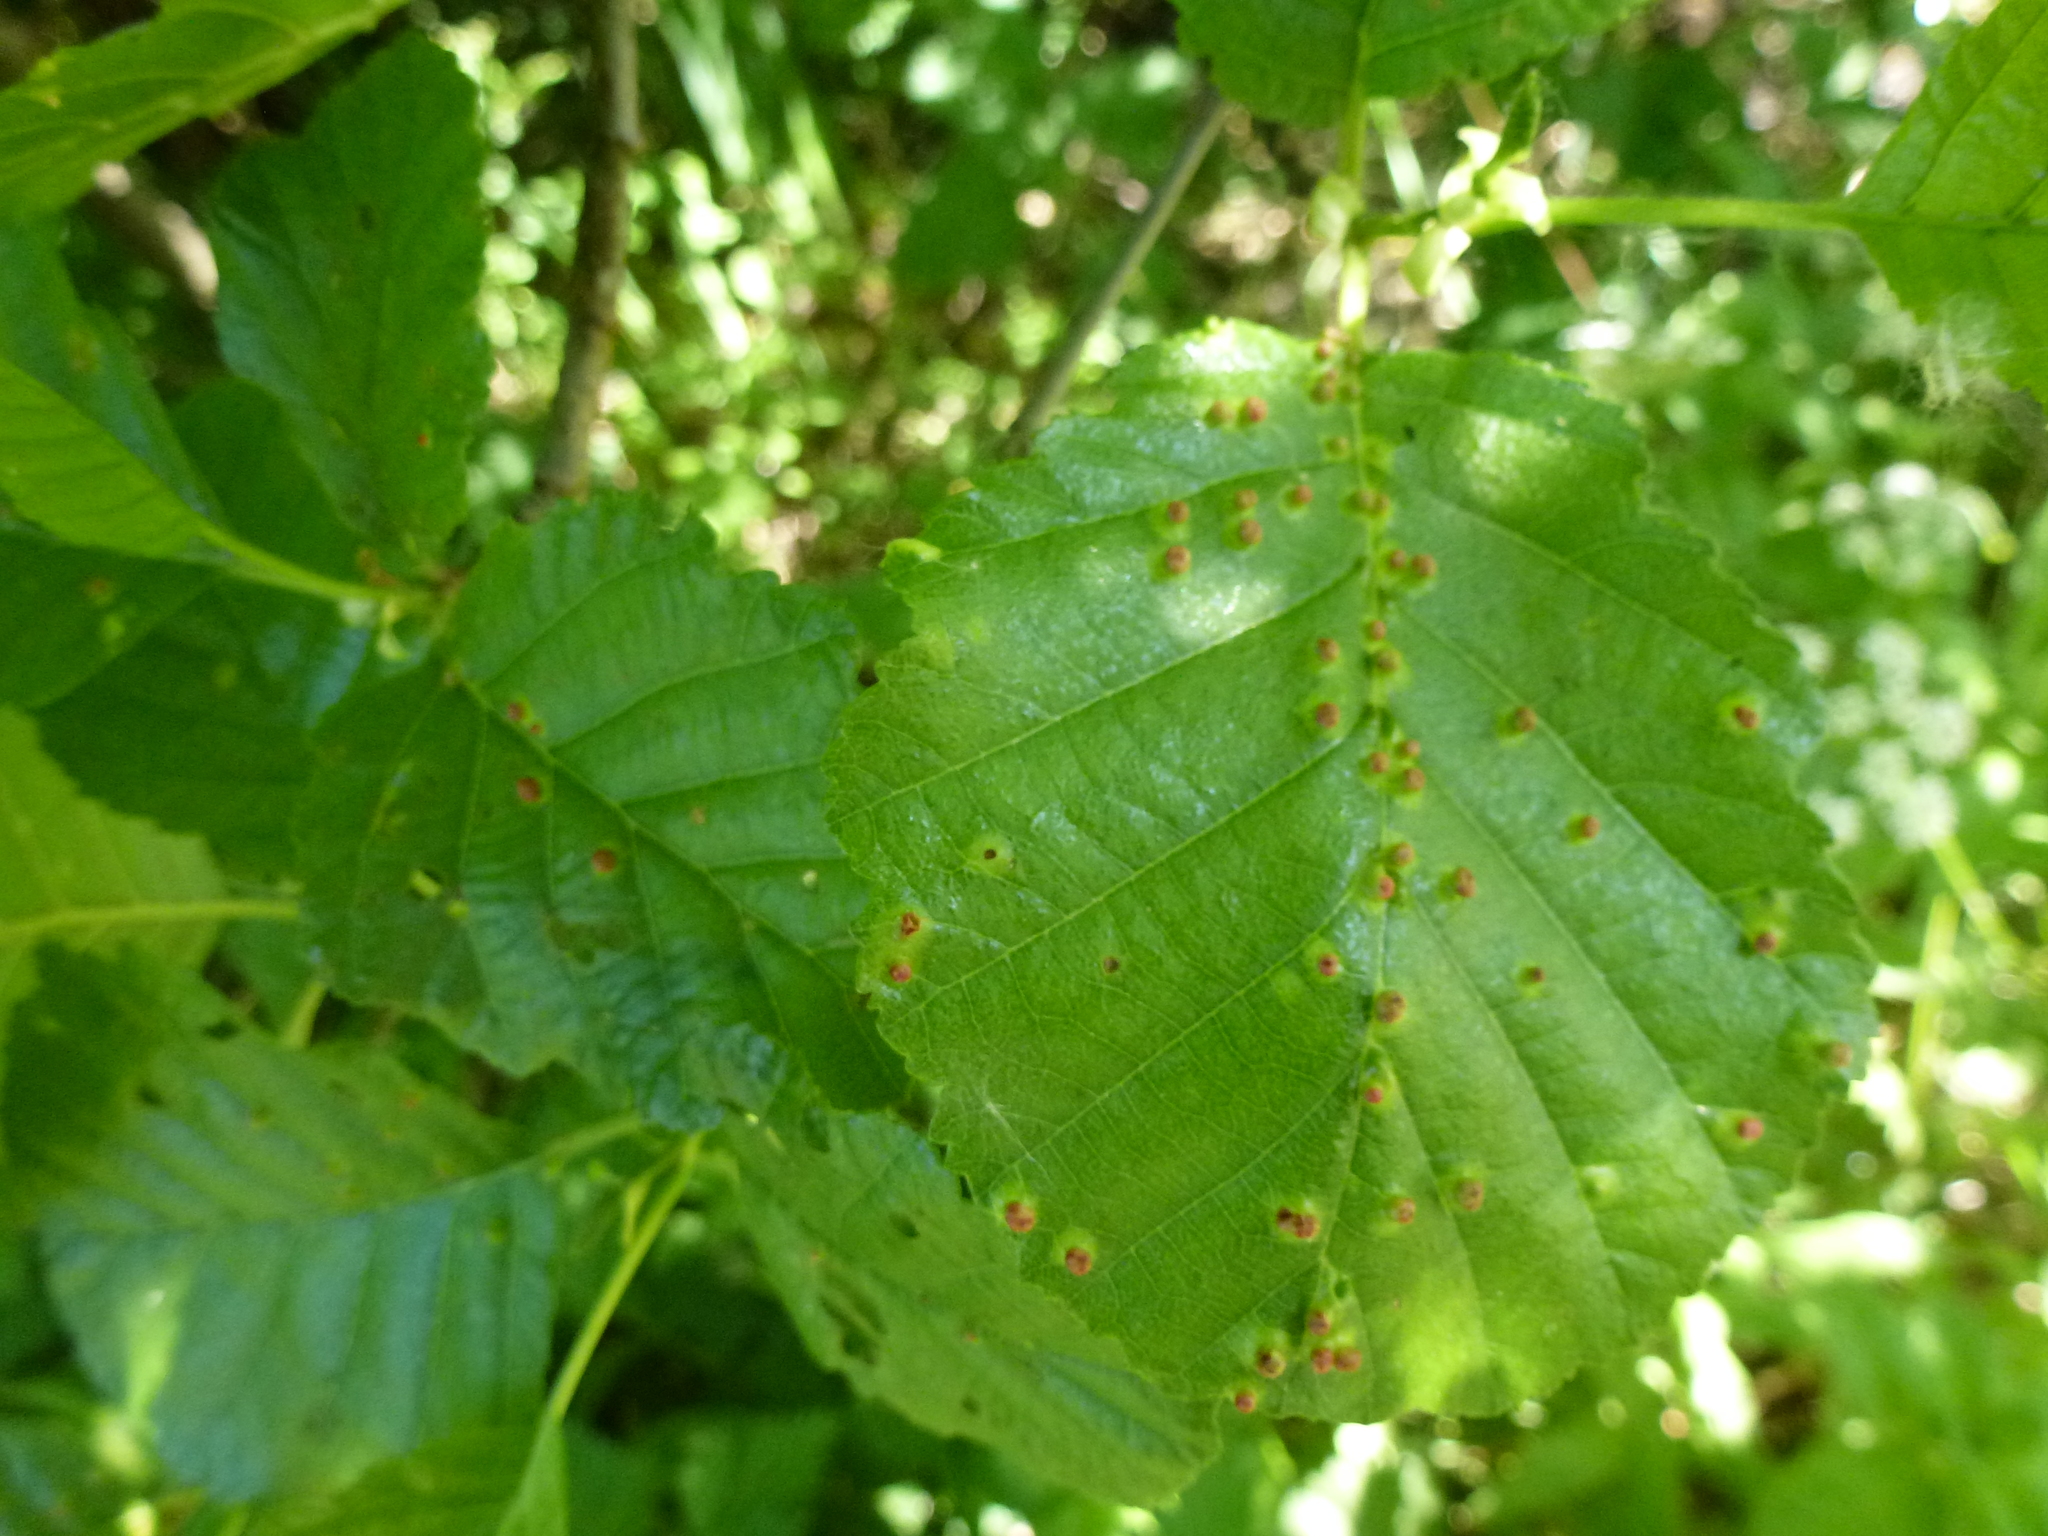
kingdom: Animalia
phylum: Arthropoda
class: Arachnida
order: Trombidiformes
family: Eriophyidae
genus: Eriophyes
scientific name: Eriophyes laevis
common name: Alder leaf gall mite
